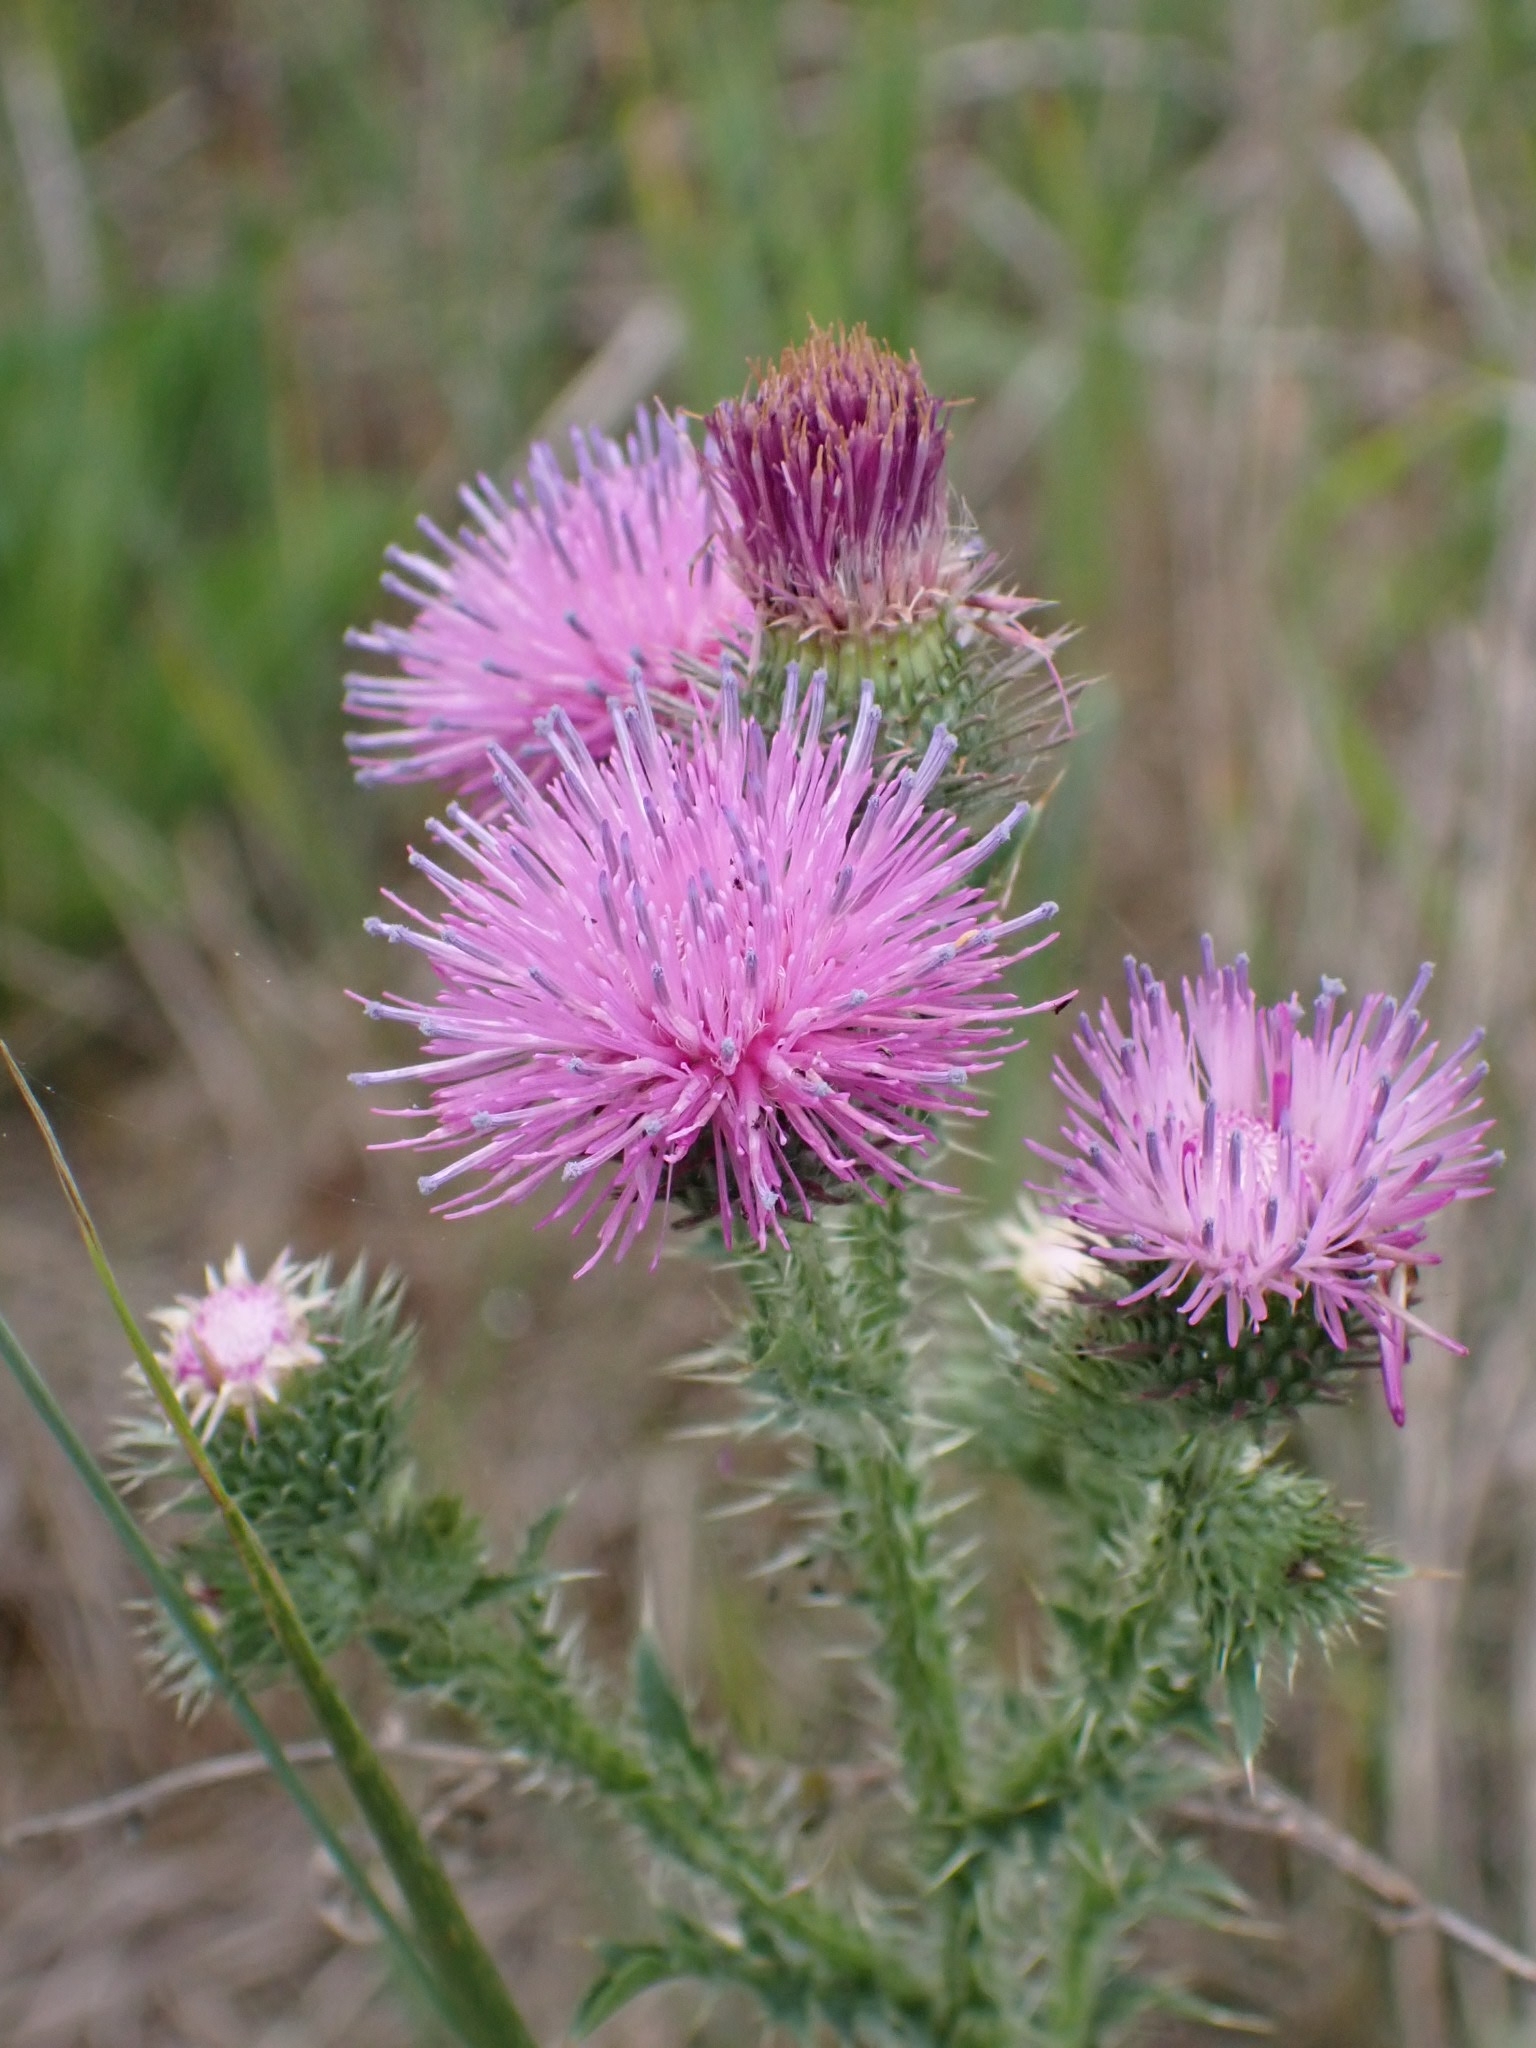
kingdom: Plantae
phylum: Tracheophyta
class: Magnoliopsida
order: Asterales
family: Asteraceae
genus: Carduus
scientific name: Carduus acanthoides
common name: Plumeless thistle
